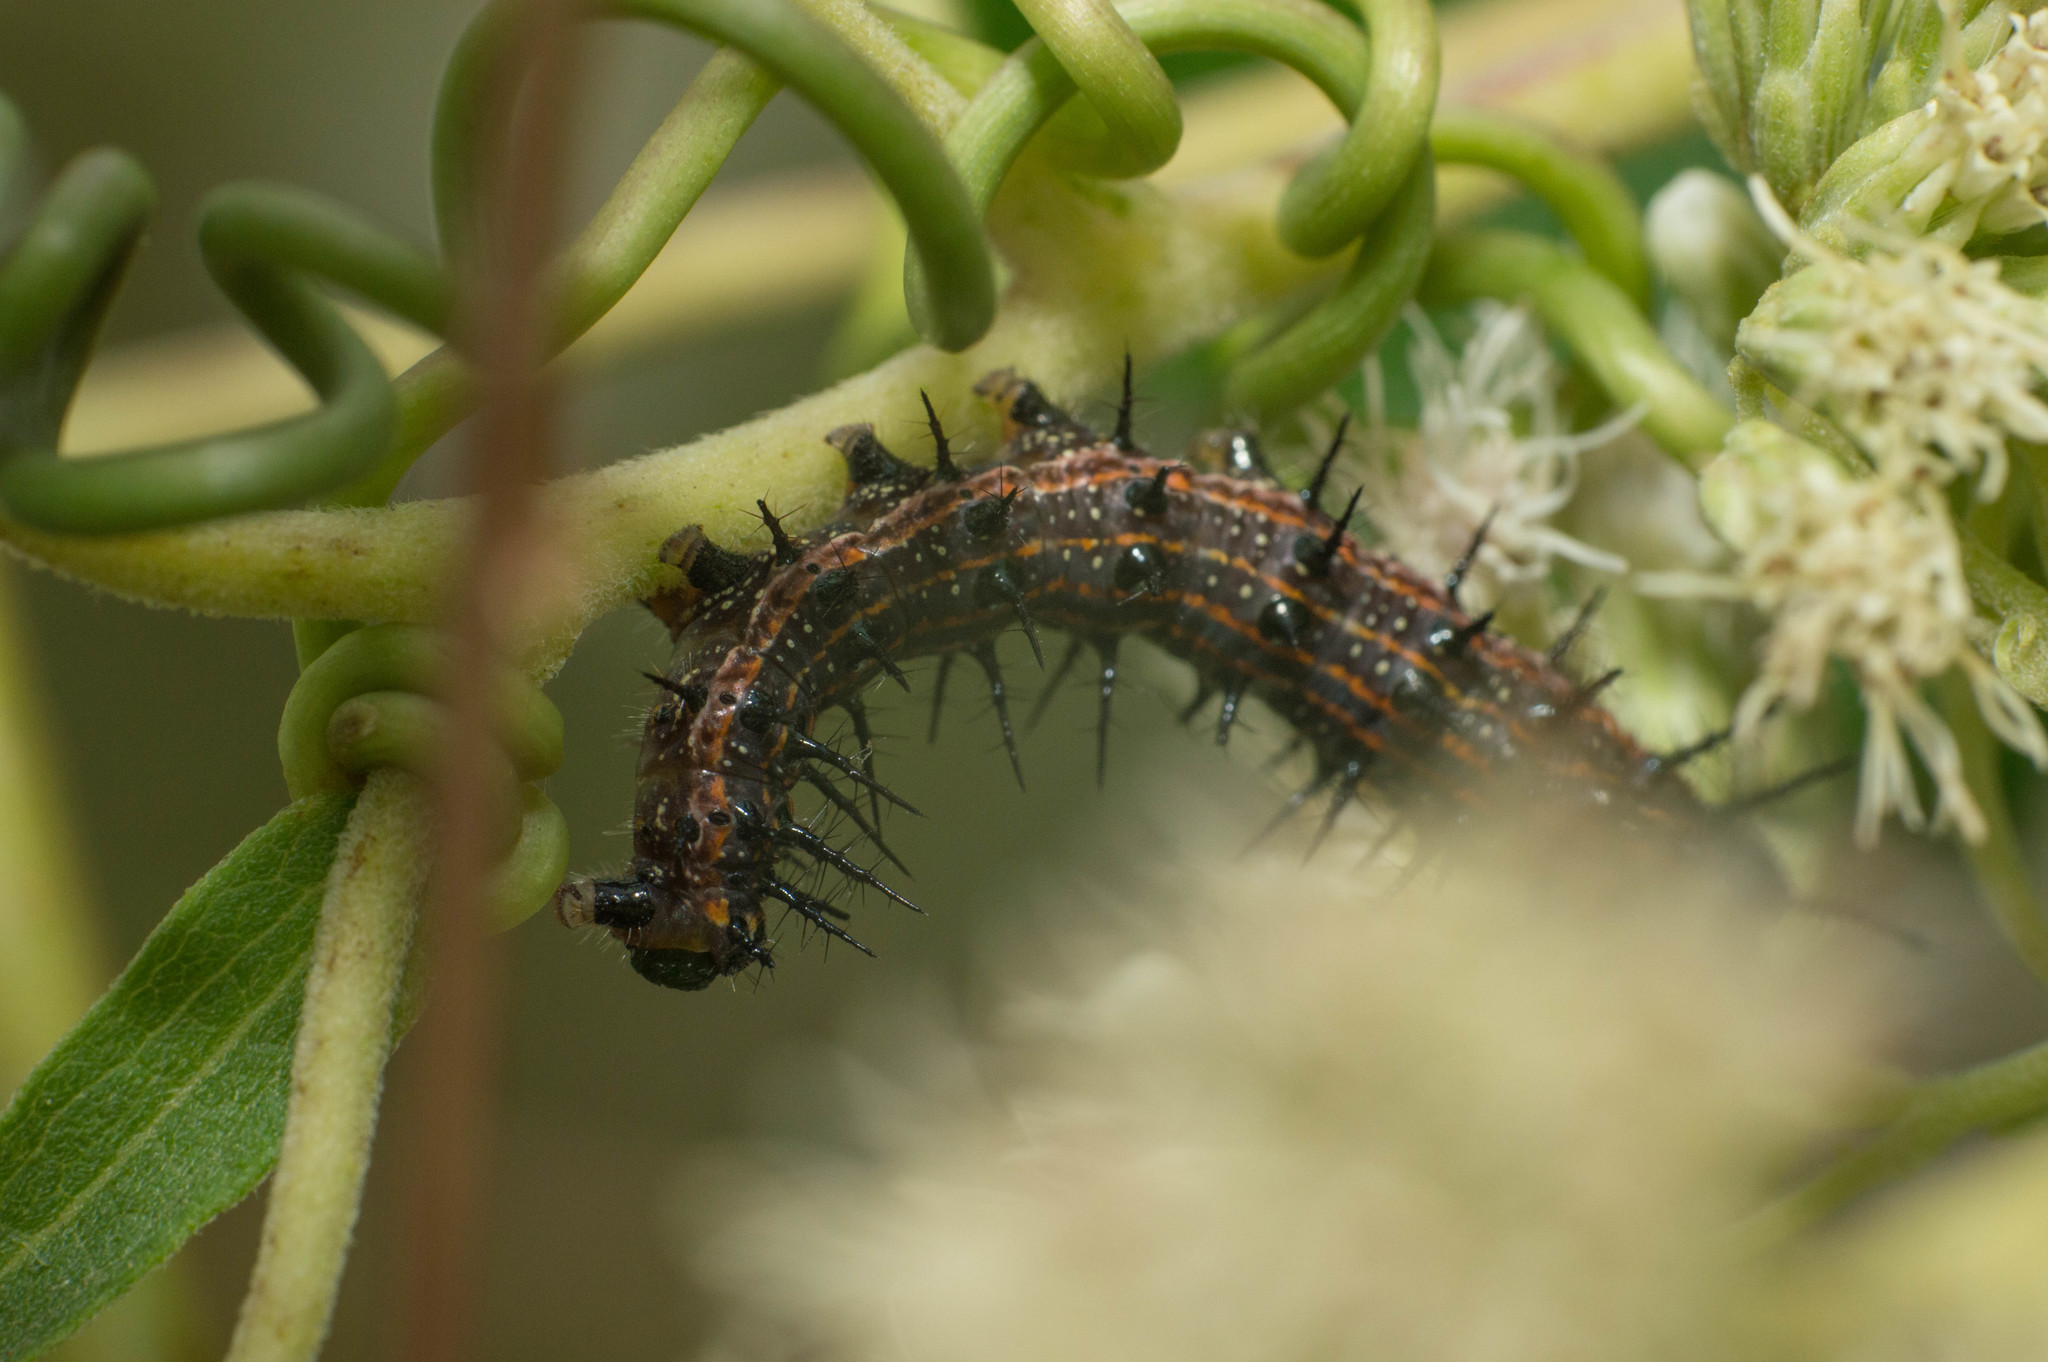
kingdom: Animalia
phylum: Arthropoda
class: Insecta
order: Lepidoptera
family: Nymphalidae
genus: Dione
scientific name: Dione vanillae
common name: Gulf fritillary
